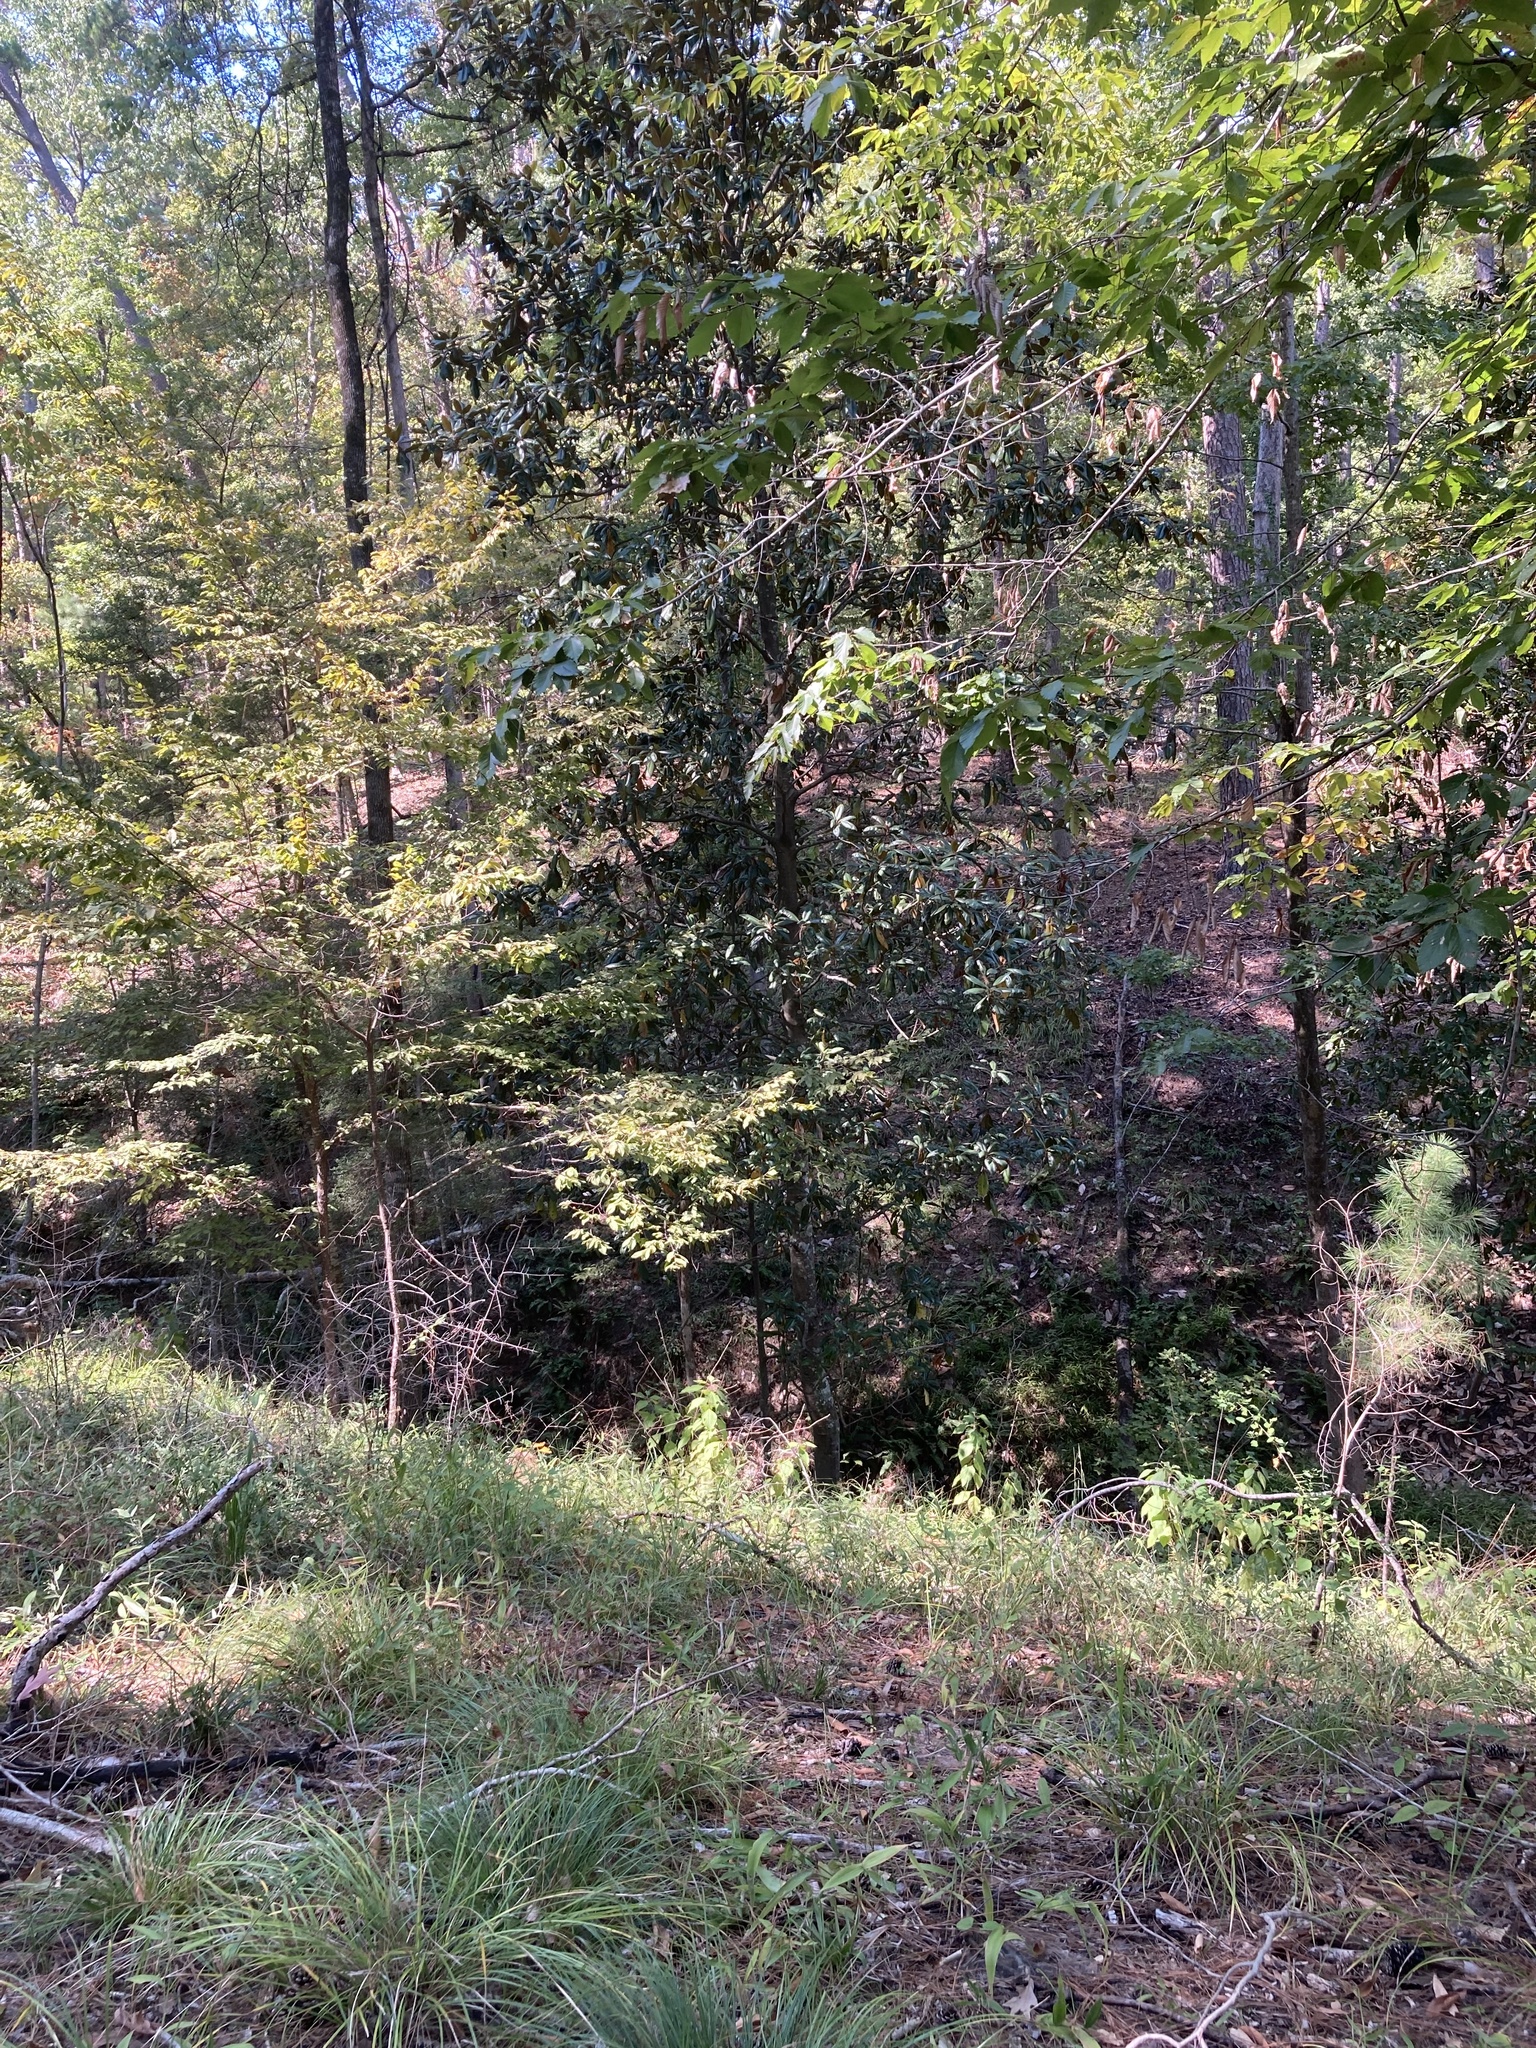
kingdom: Plantae
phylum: Tracheophyta
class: Magnoliopsida
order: Magnoliales
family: Magnoliaceae
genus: Magnolia
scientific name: Magnolia grandiflora
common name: Southern magnolia
